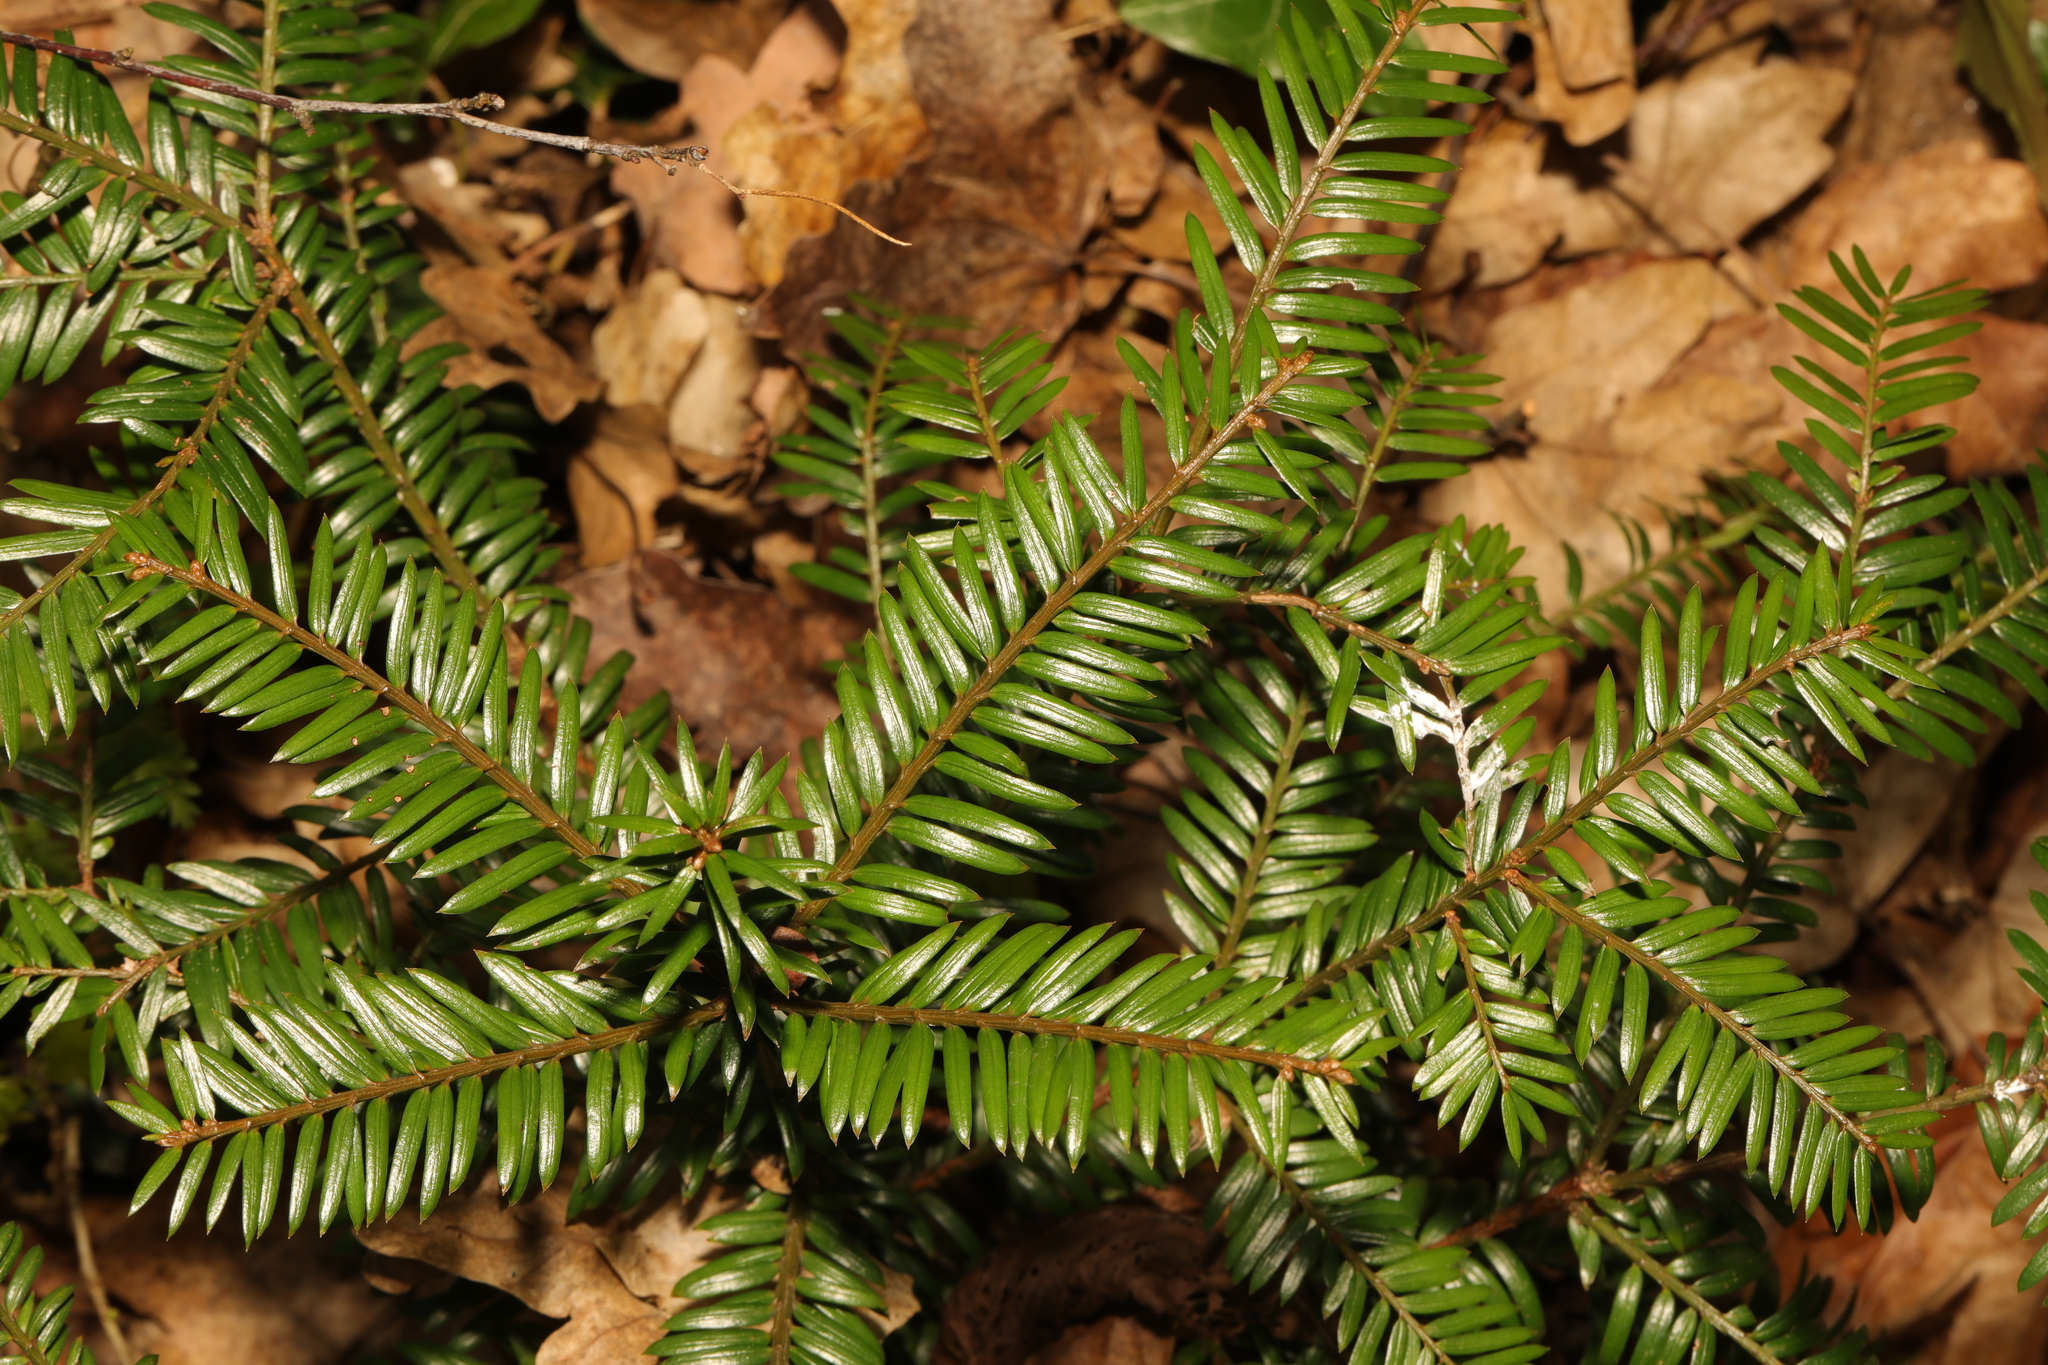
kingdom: Plantae
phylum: Tracheophyta
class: Pinopsida
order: Pinales
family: Taxaceae
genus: Taxus
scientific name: Taxus baccata
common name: Yew
